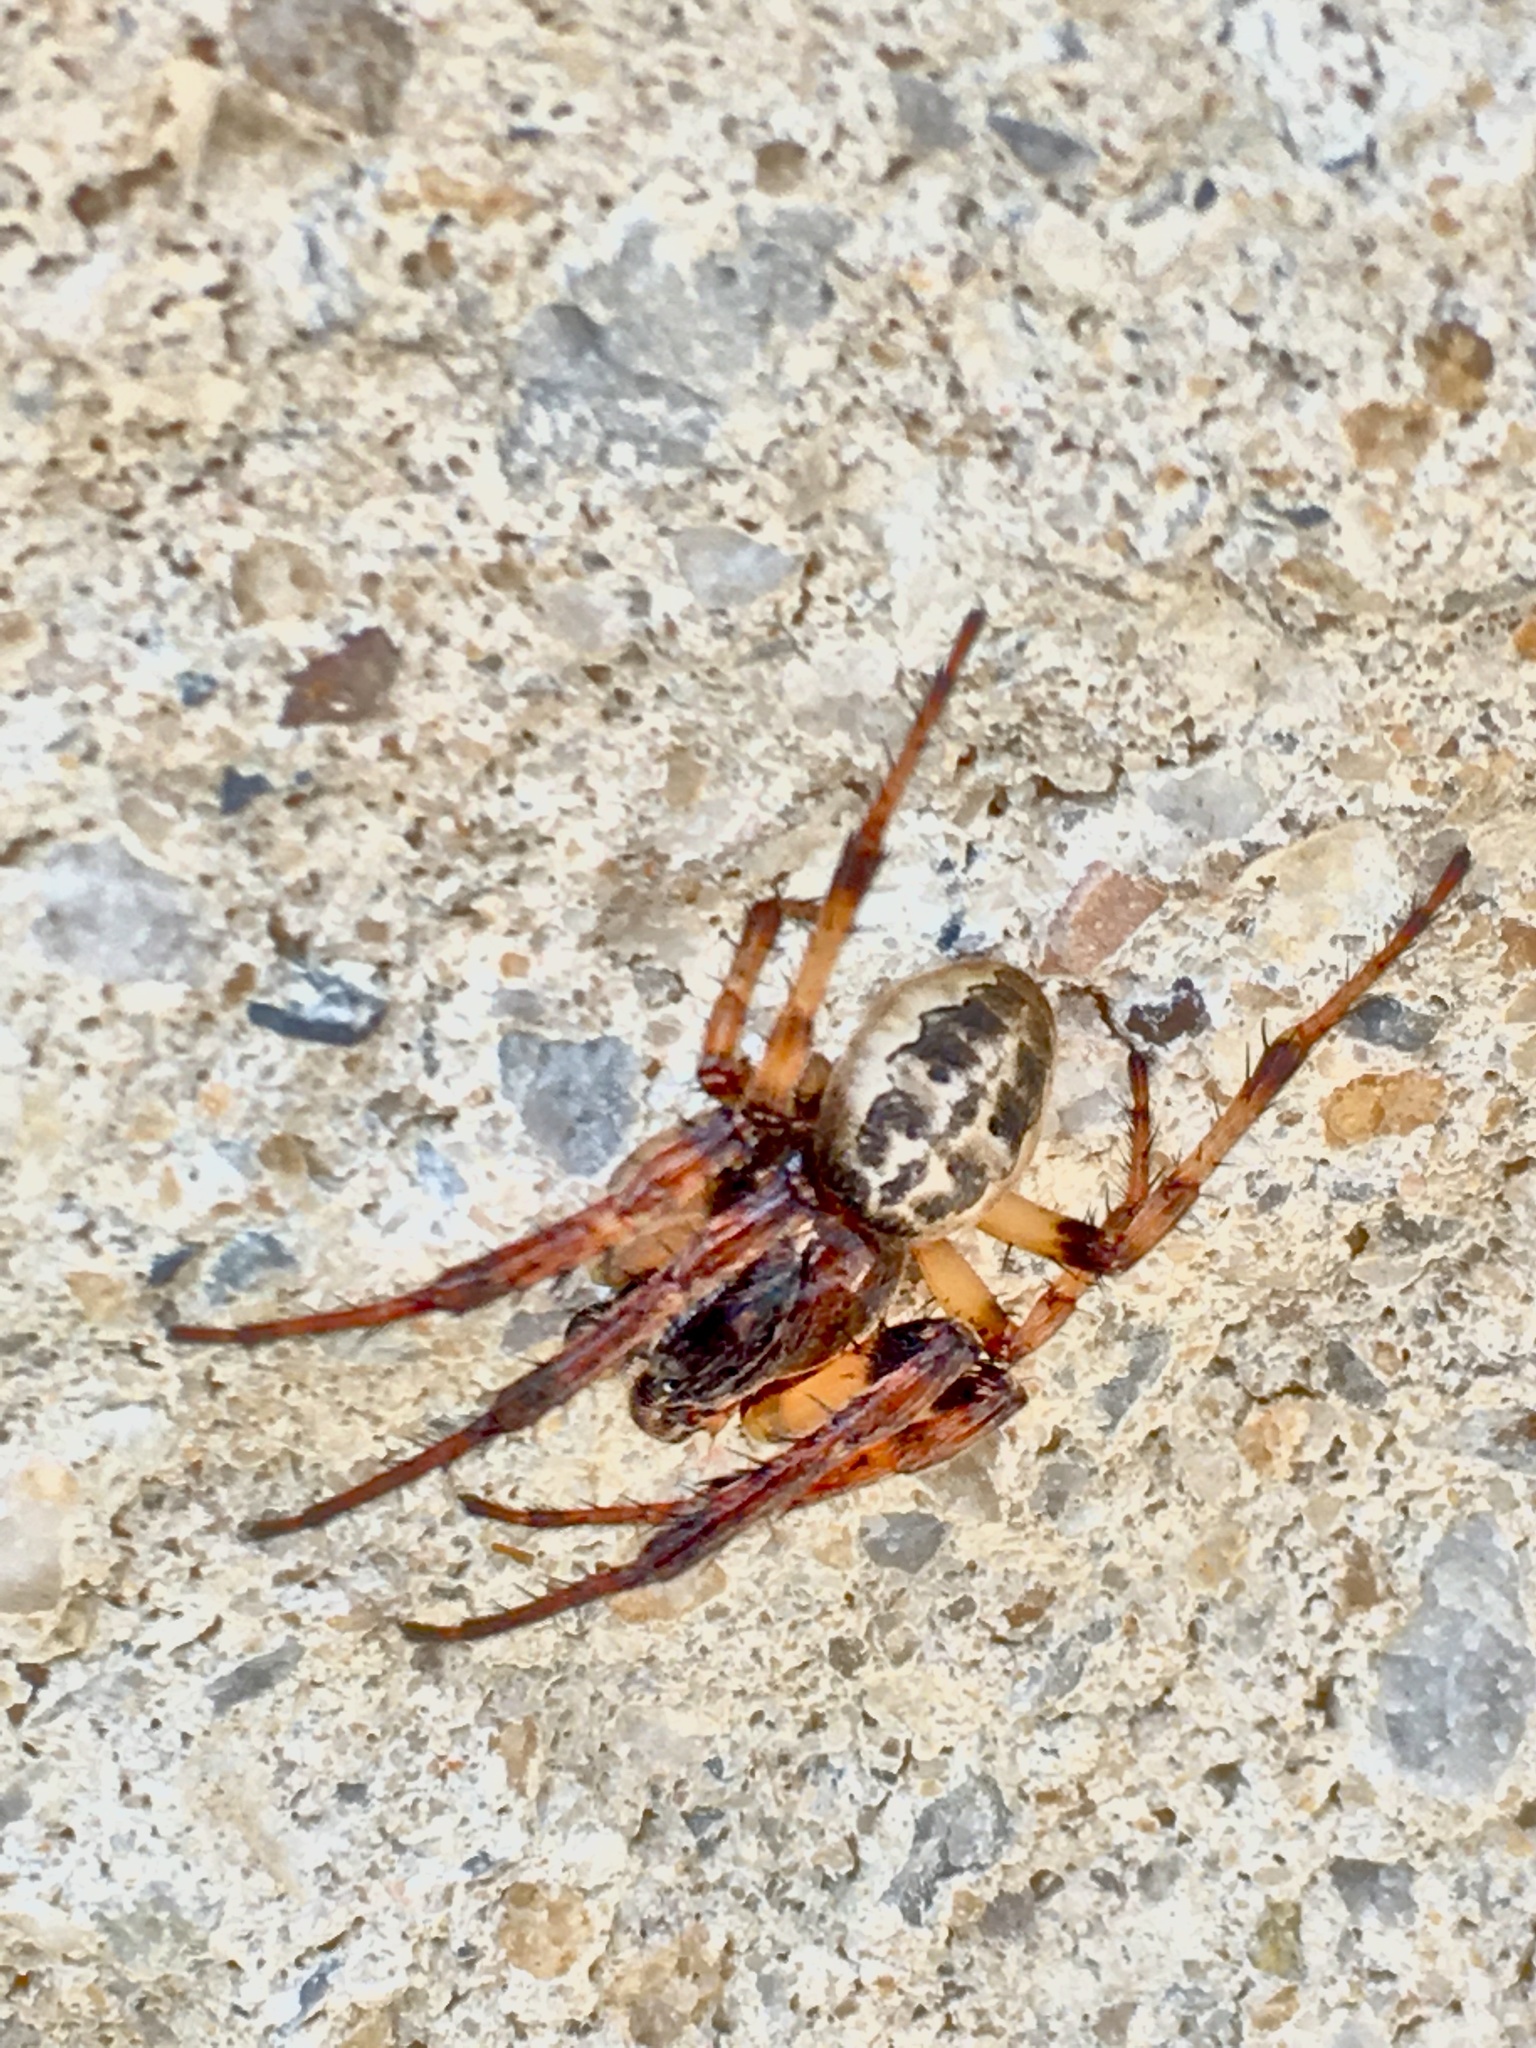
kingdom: Animalia
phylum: Arthropoda
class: Arachnida
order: Araneae
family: Araneidae
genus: Larinioides
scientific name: Larinioides cornutus
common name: Furrow orbweaver
